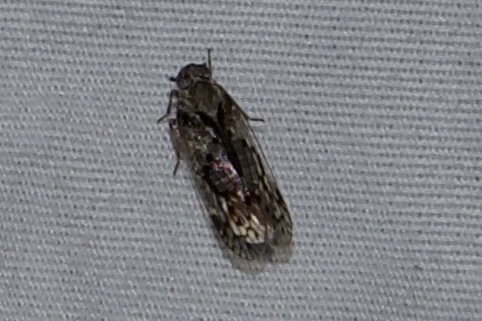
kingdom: Animalia
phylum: Arthropoda
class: Insecta
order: Hemiptera
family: Cixiidae
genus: Melanoliarus
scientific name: Melanoliarus aridus
